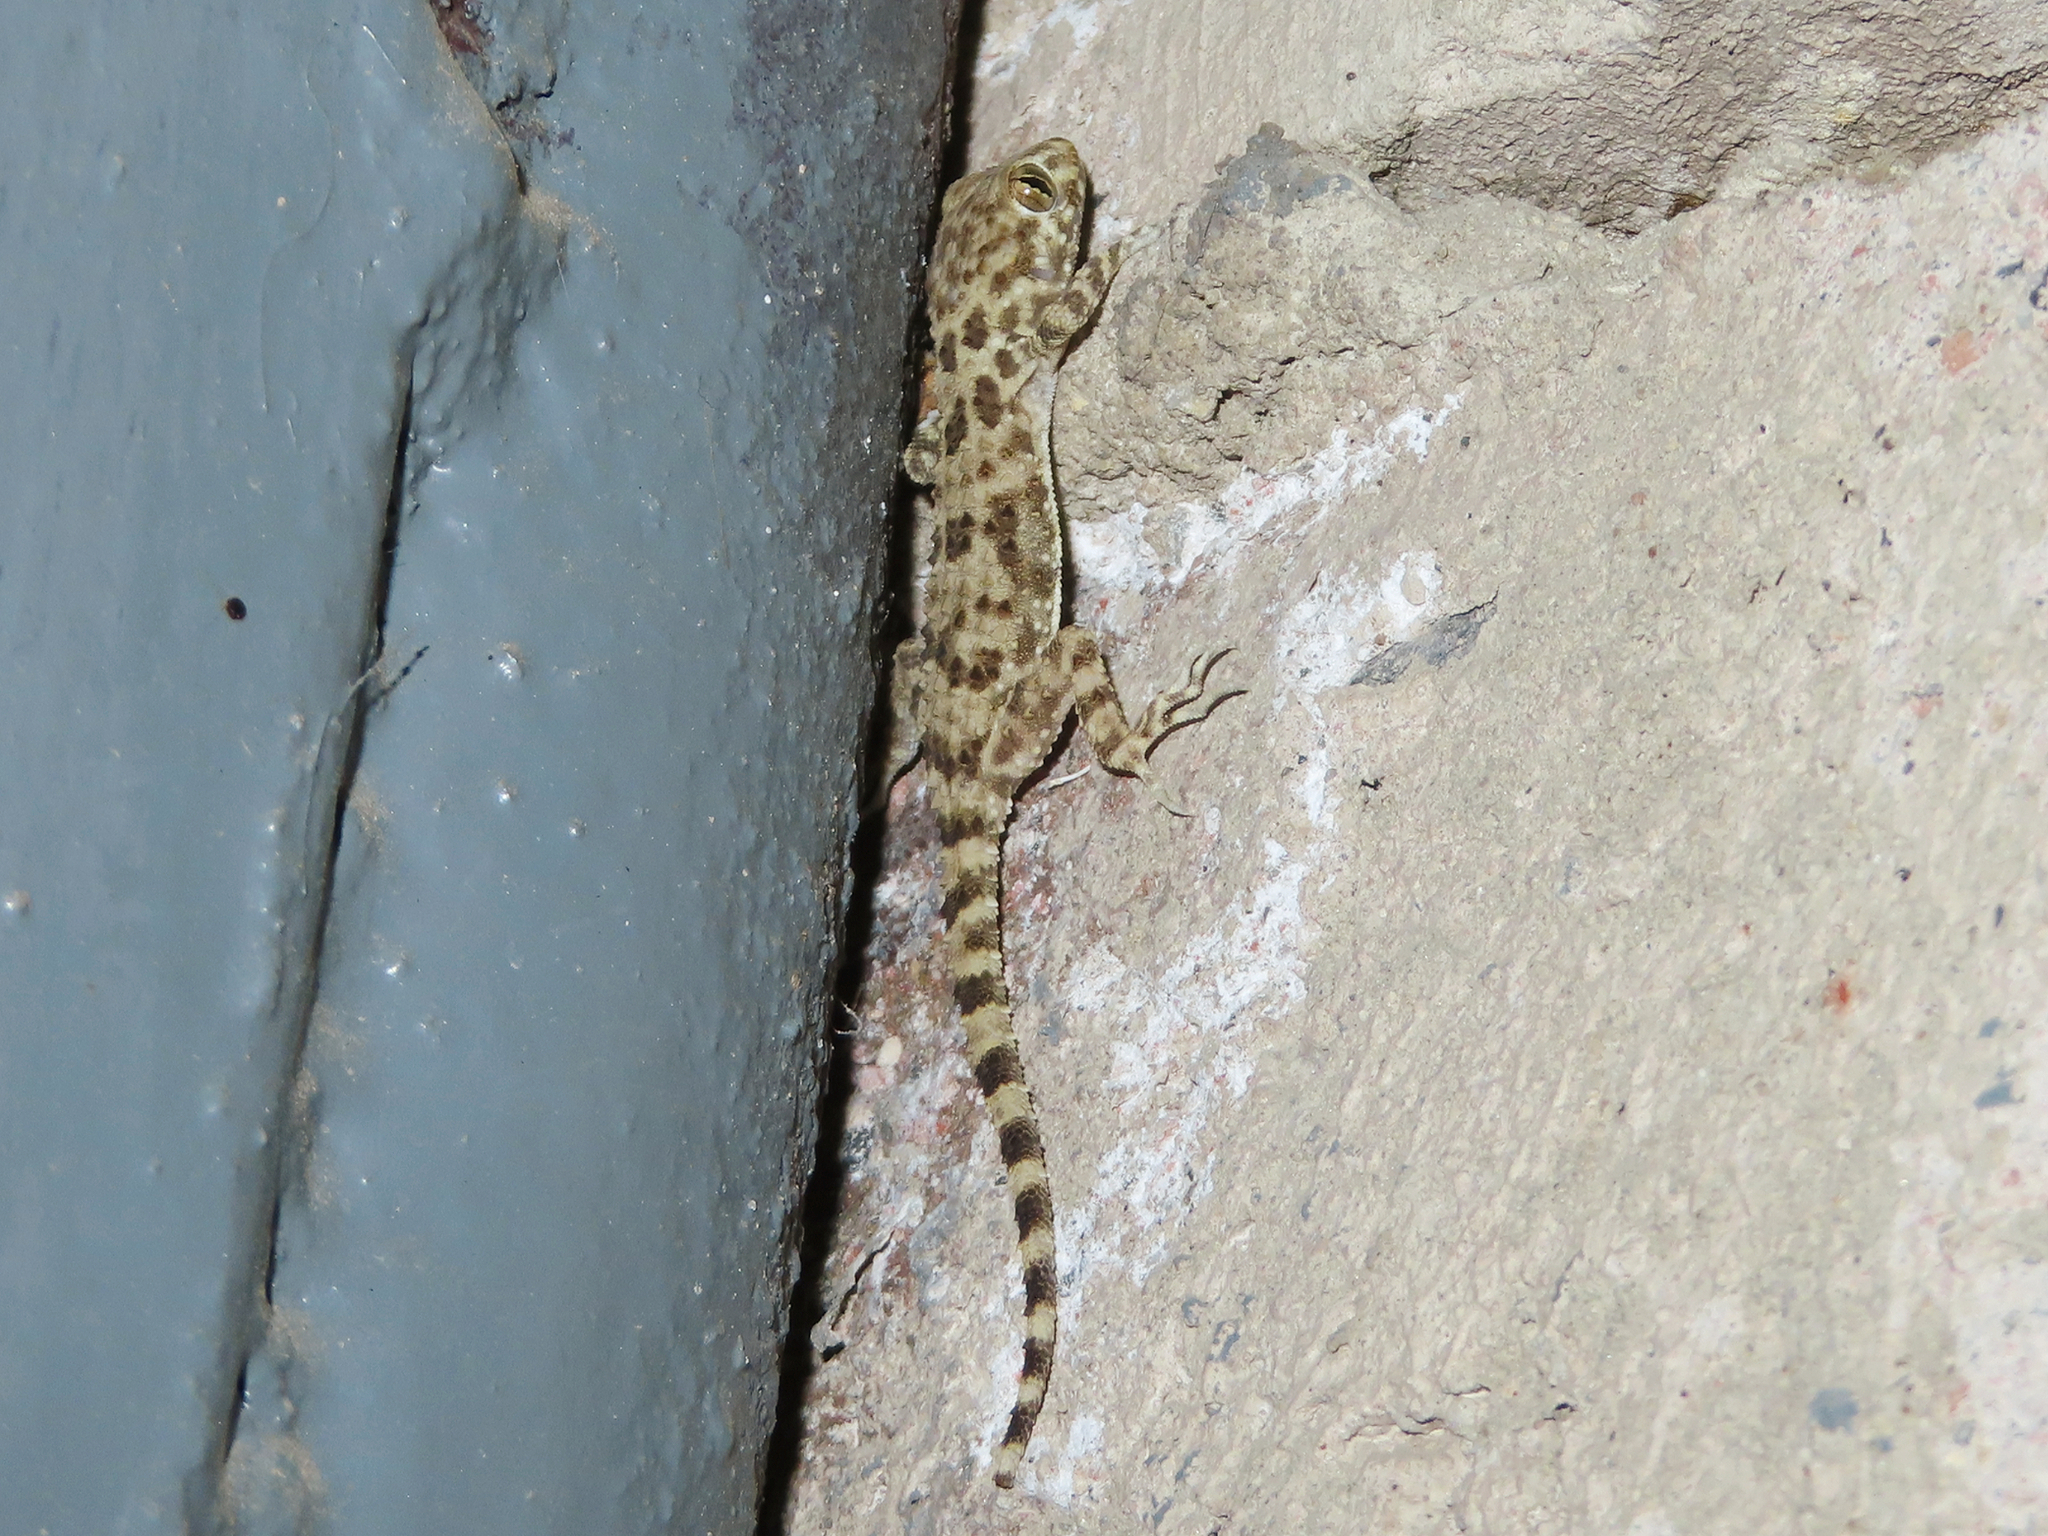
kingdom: Animalia
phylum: Chordata
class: Squamata
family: Gekkonidae
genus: Tenuidactylus
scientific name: Tenuidactylus caspius
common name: Caspian bent-toed gecko
